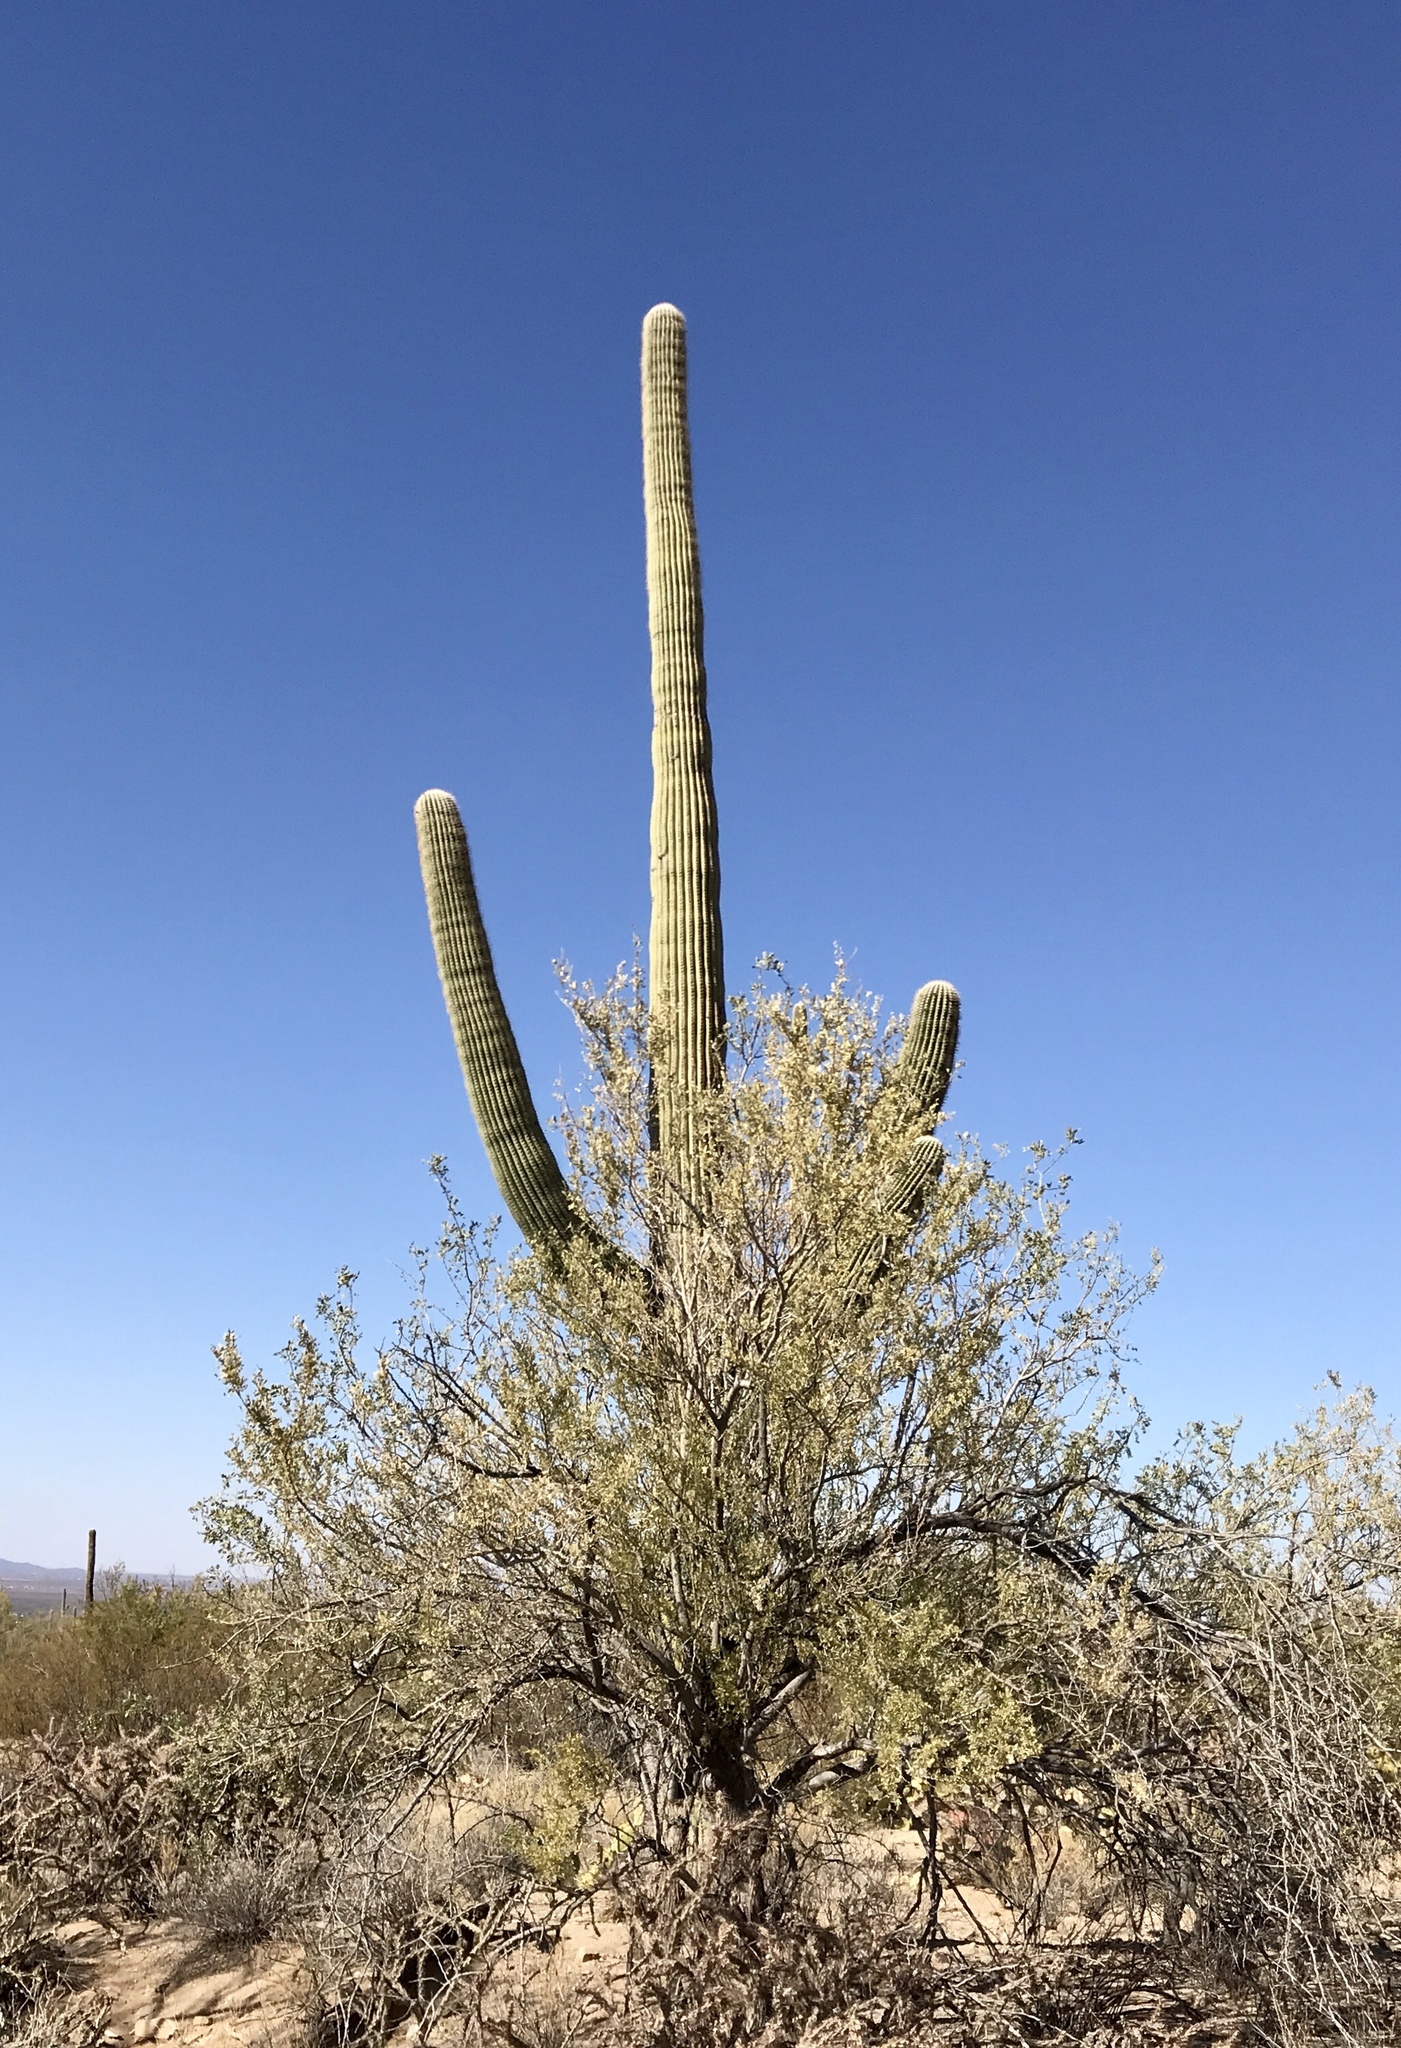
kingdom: Plantae
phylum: Tracheophyta
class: Magnoliopsida
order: Fabales
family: Fabaceae
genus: Olneya
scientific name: Olneya tesota
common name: Desert ironwood
